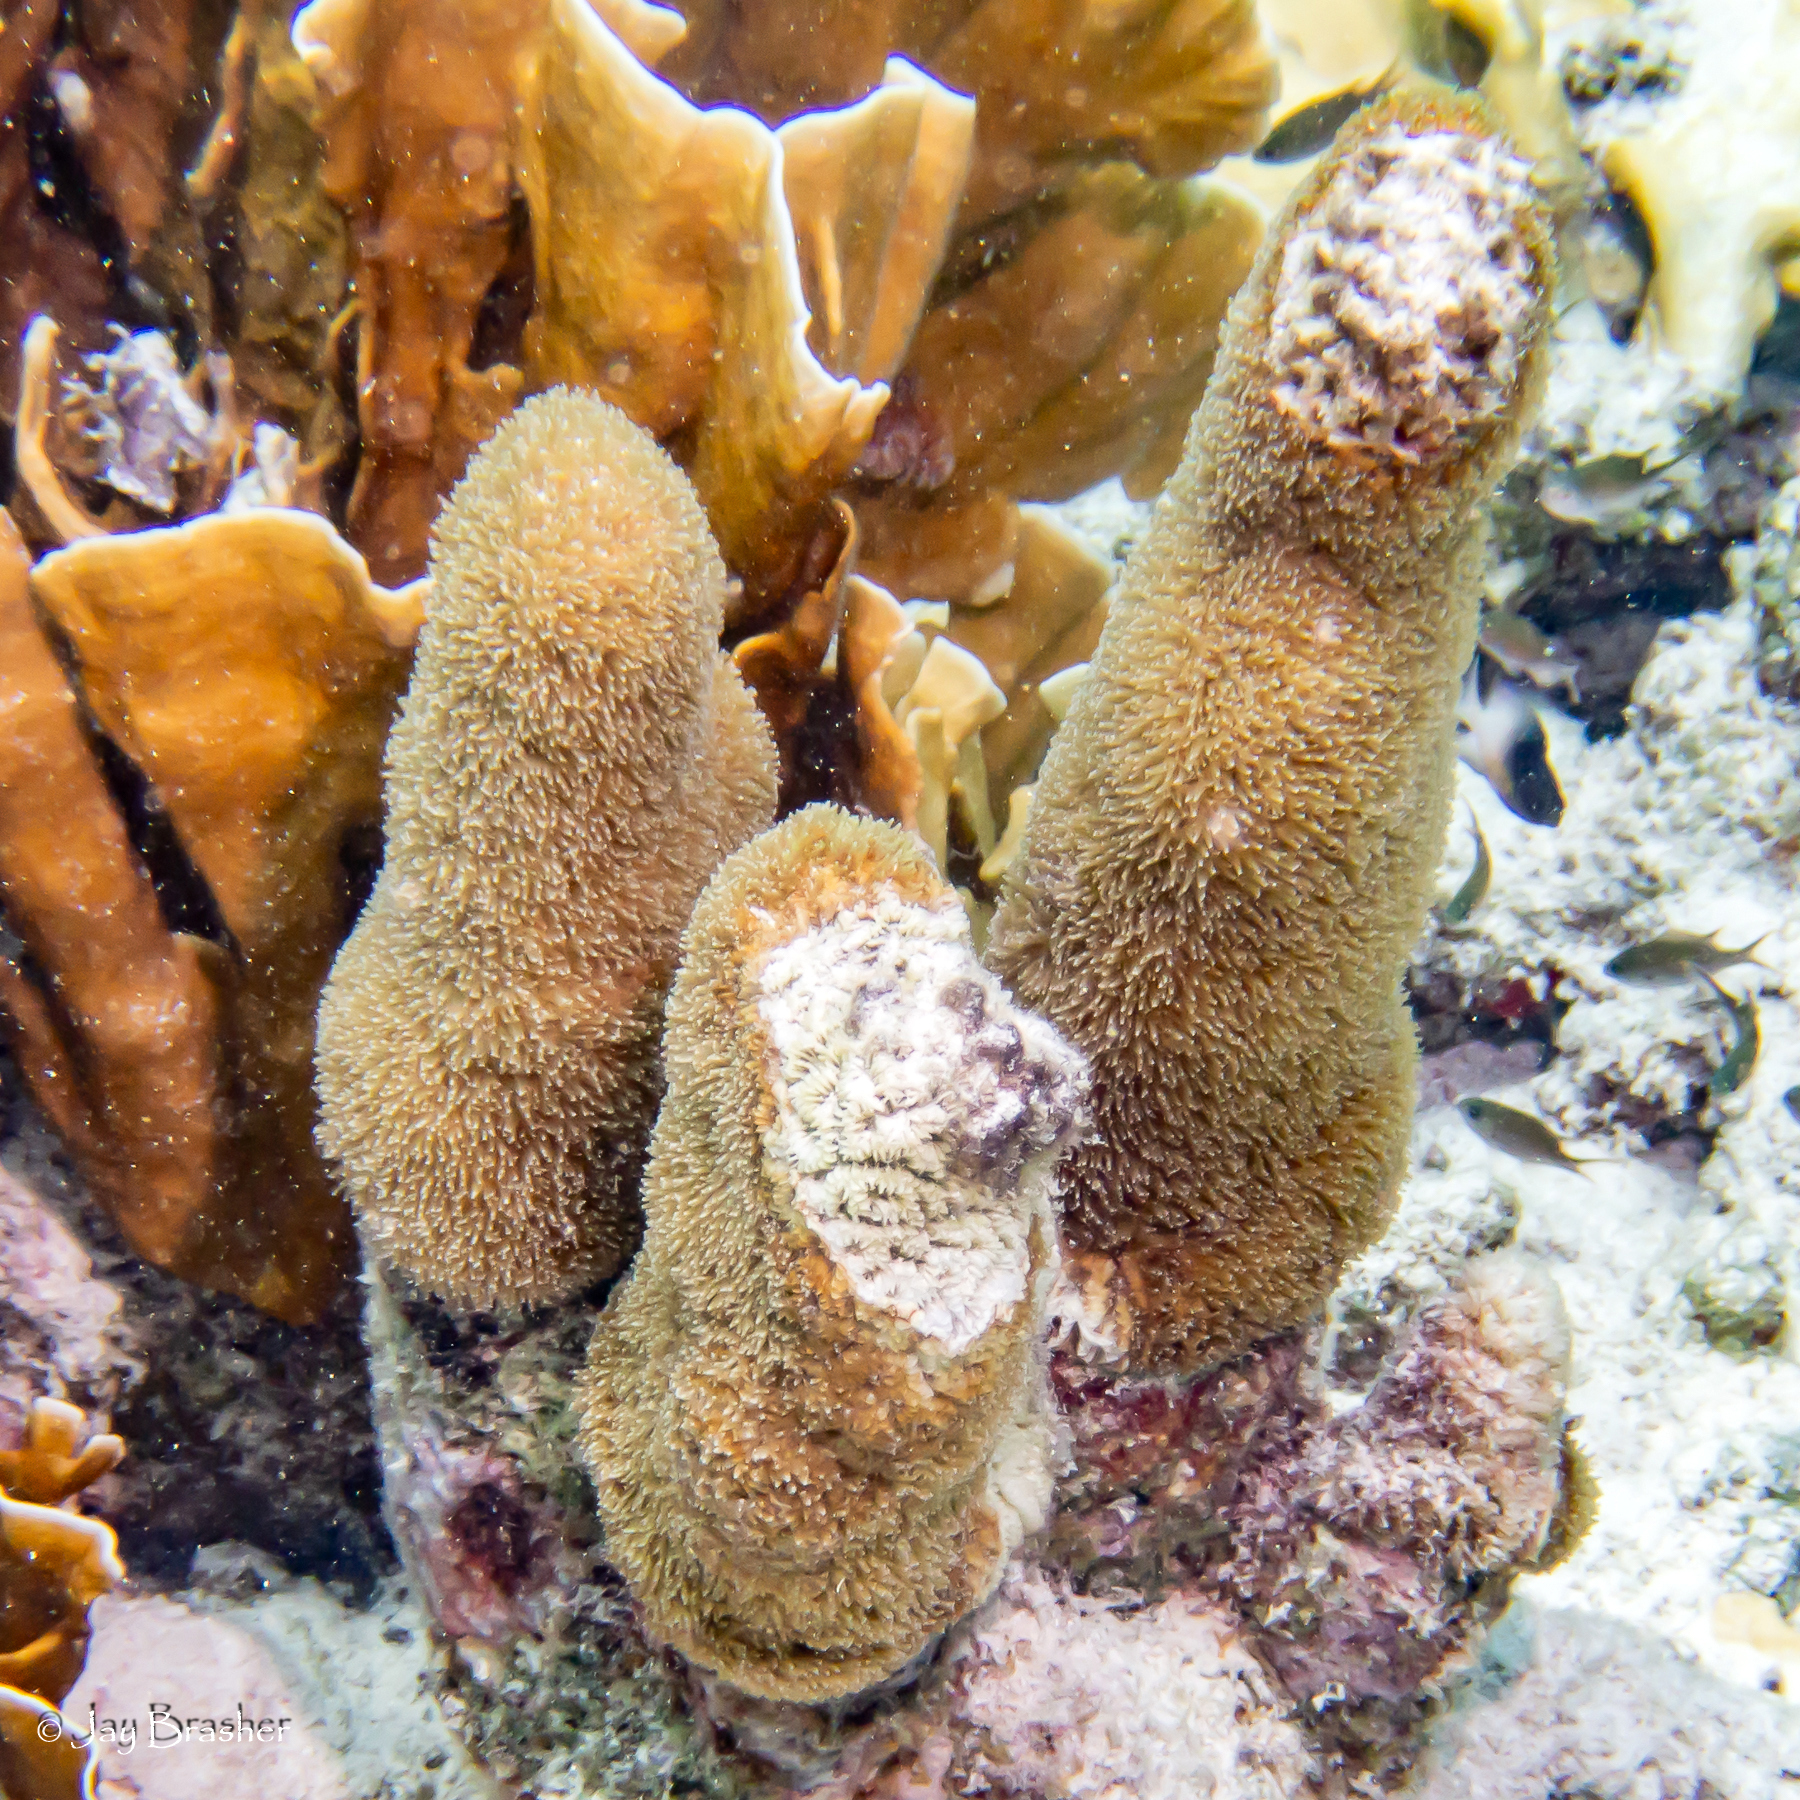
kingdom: Animalia
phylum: Cnidaria
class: Anthozoa
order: Scleractinia
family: Meandrinidae
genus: Dendrogyra
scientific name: Dendrogyra cylindrus
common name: Pillar coral
